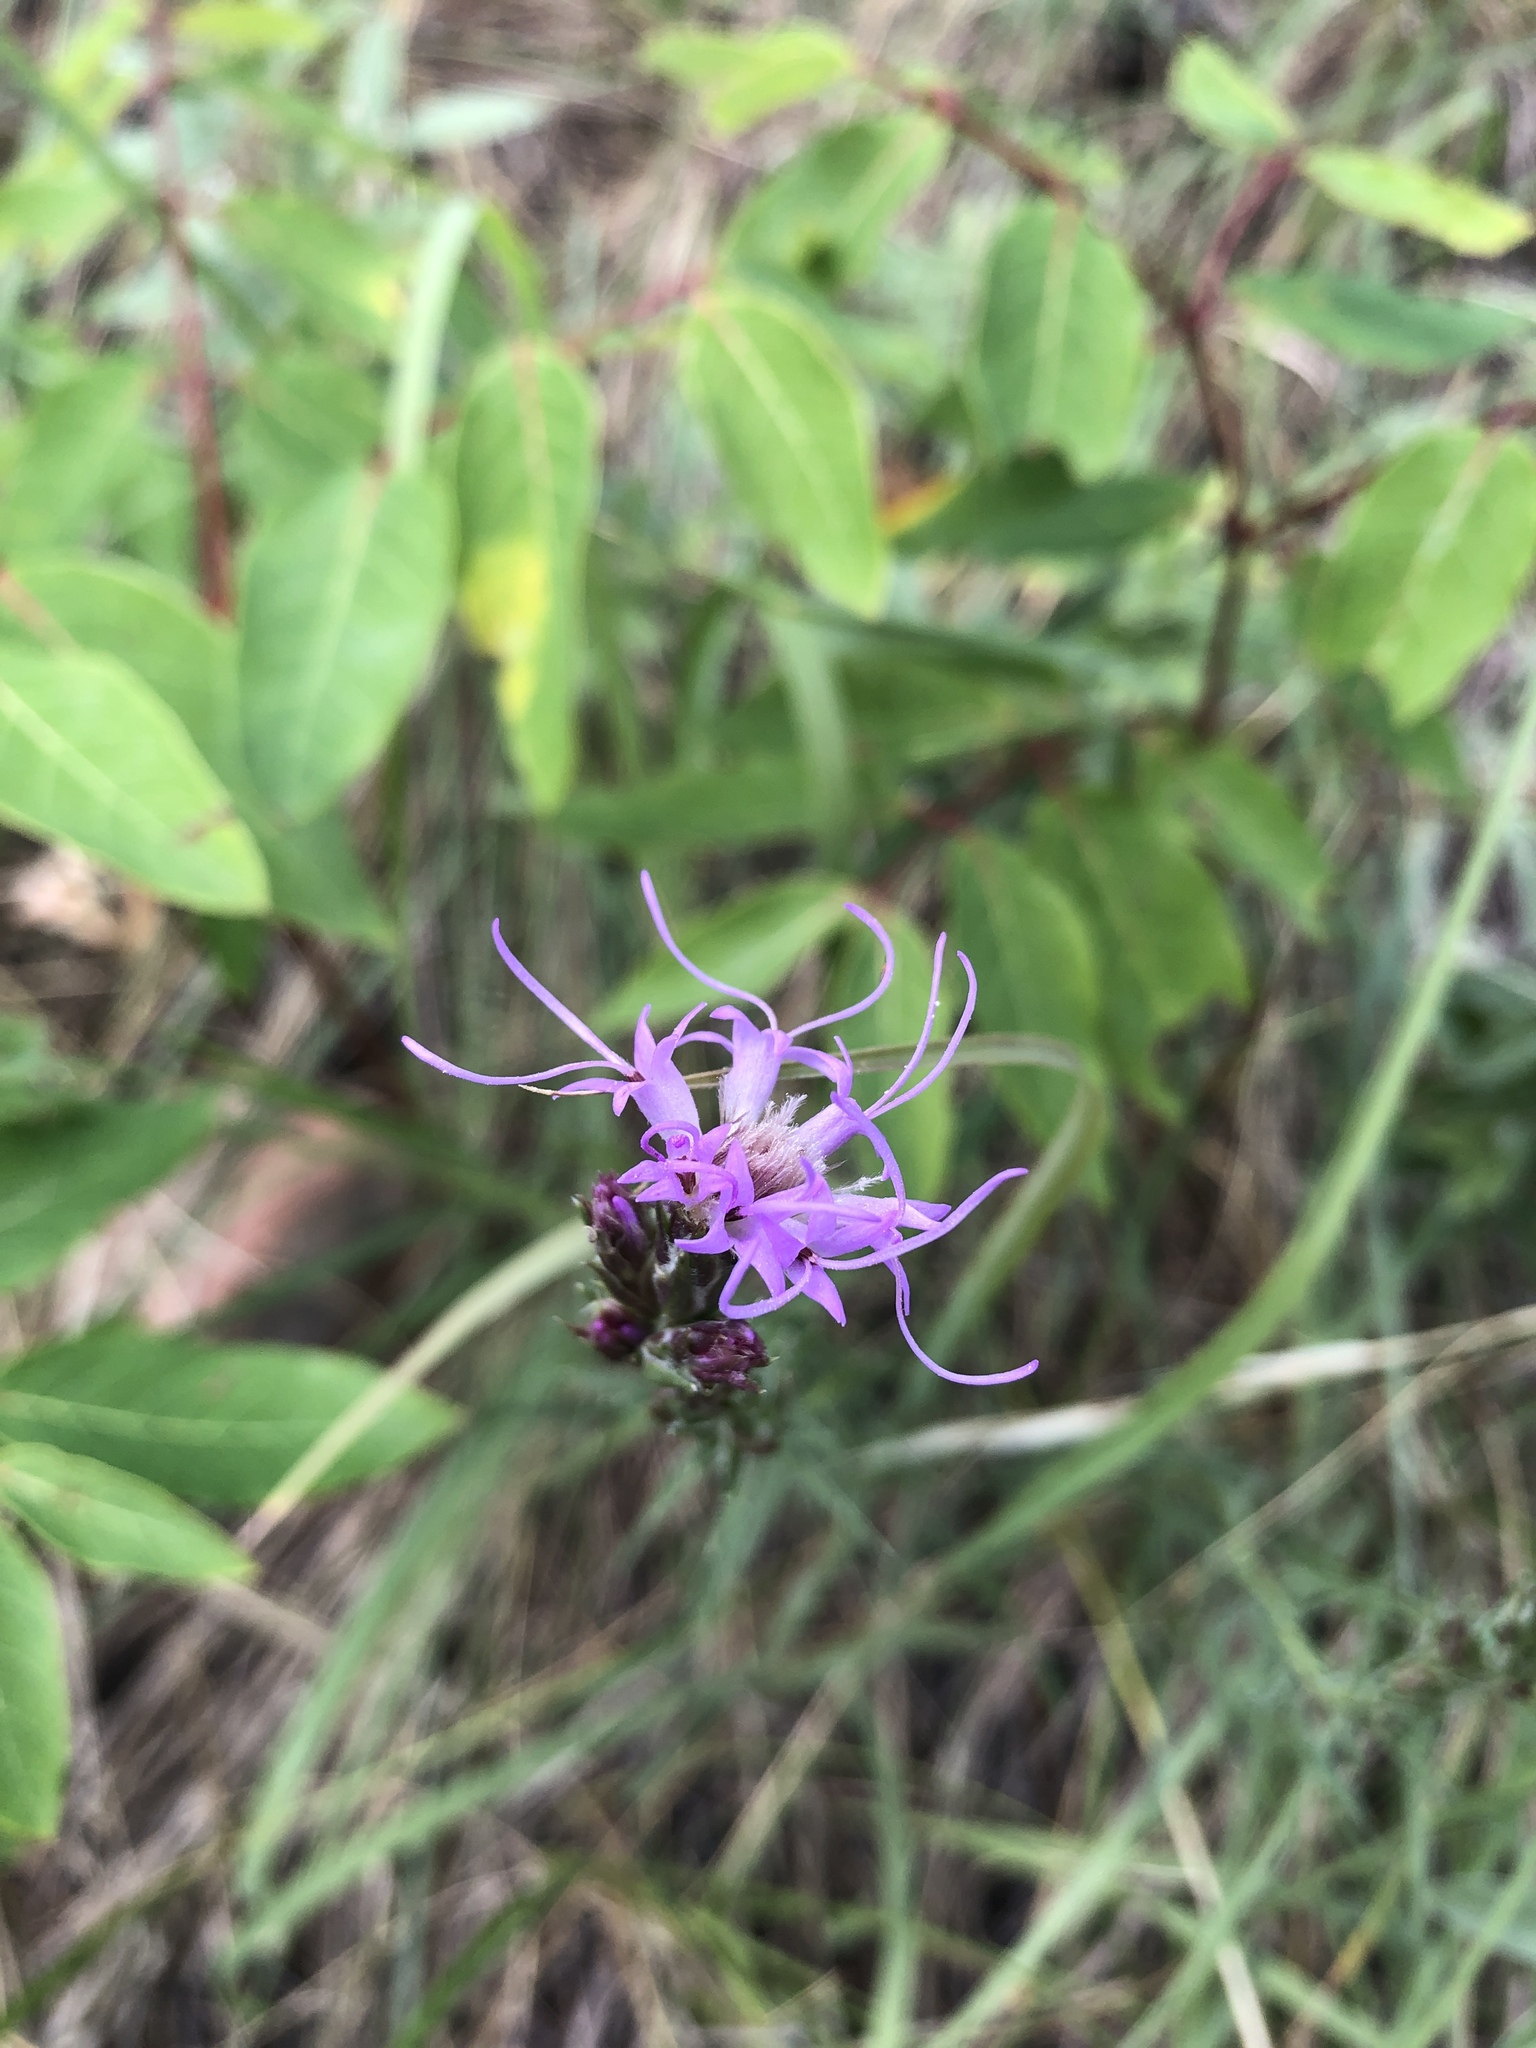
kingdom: Plantae
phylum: Tracheophyta
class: Magnoliopsida
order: Asterales
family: Asteraceae
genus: Liatris
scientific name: Liatris punctata
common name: Dotted gayfeather
